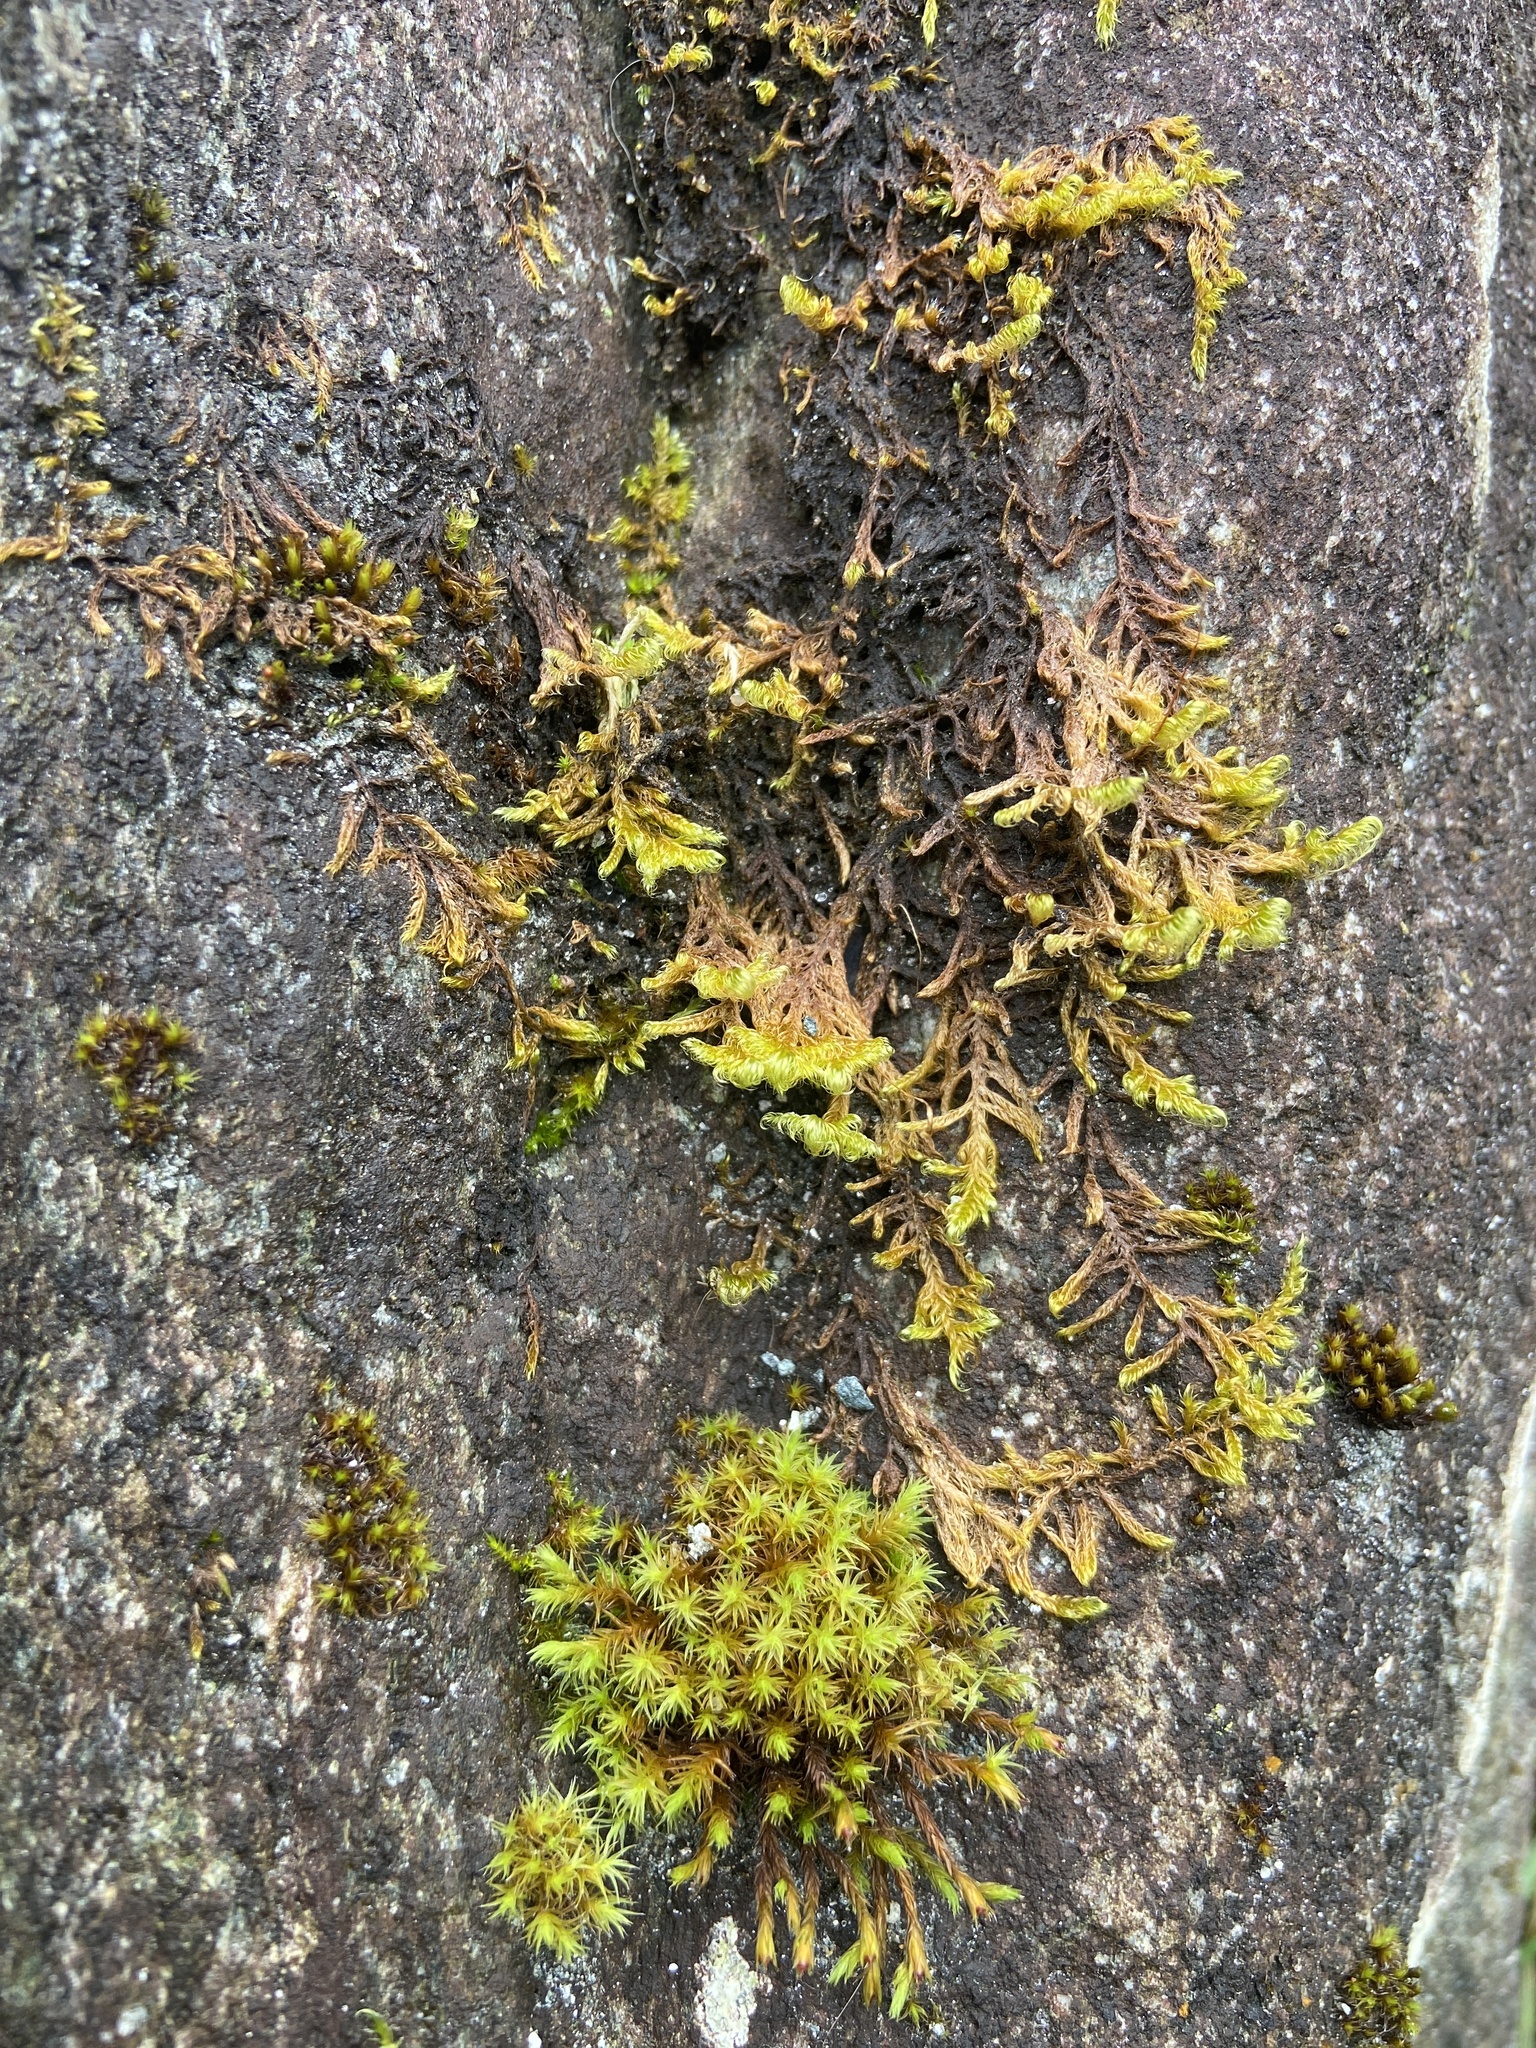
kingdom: Plantae
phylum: Bryophyta
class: Bryopsida
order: Hypnales
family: Scorpidiaceae
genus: Sanionia
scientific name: Sanionia uncinata
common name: Sickle moss
